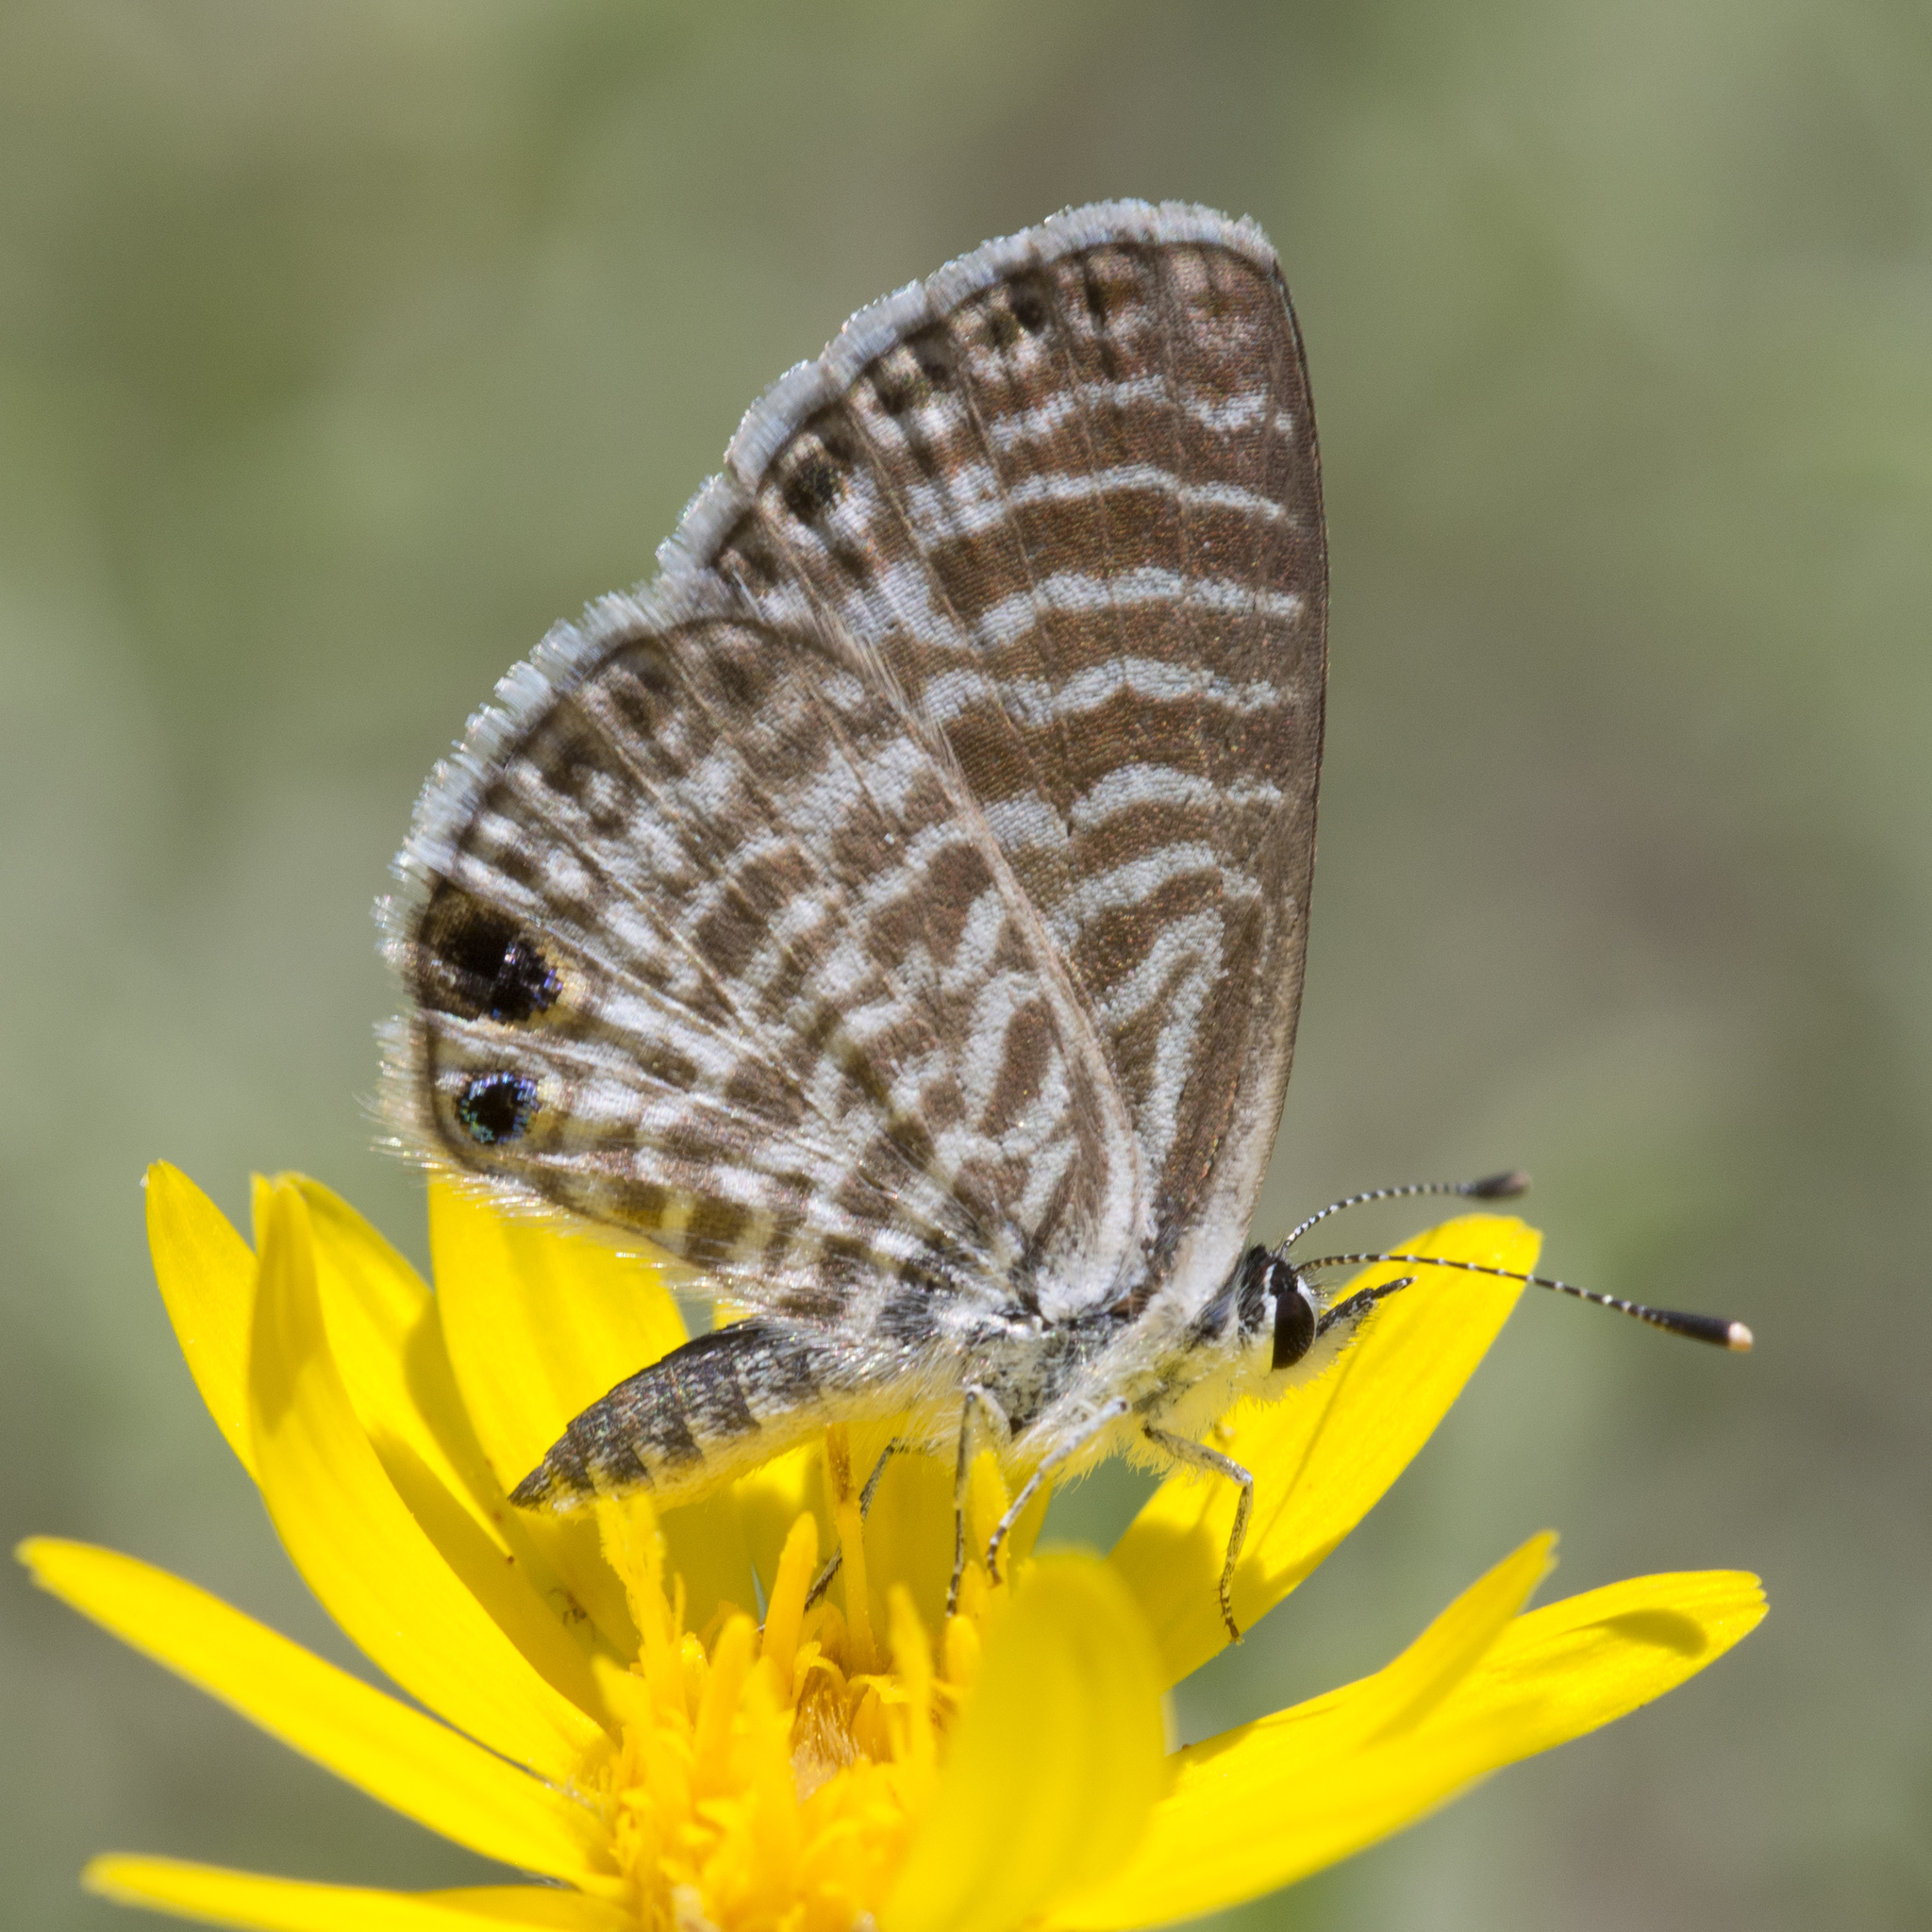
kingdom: Animalia
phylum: Arthropoda
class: Insecta
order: Lepidoptera
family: Lycaenidae
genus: Leptotes
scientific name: Leptotes marina
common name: Marine blue
